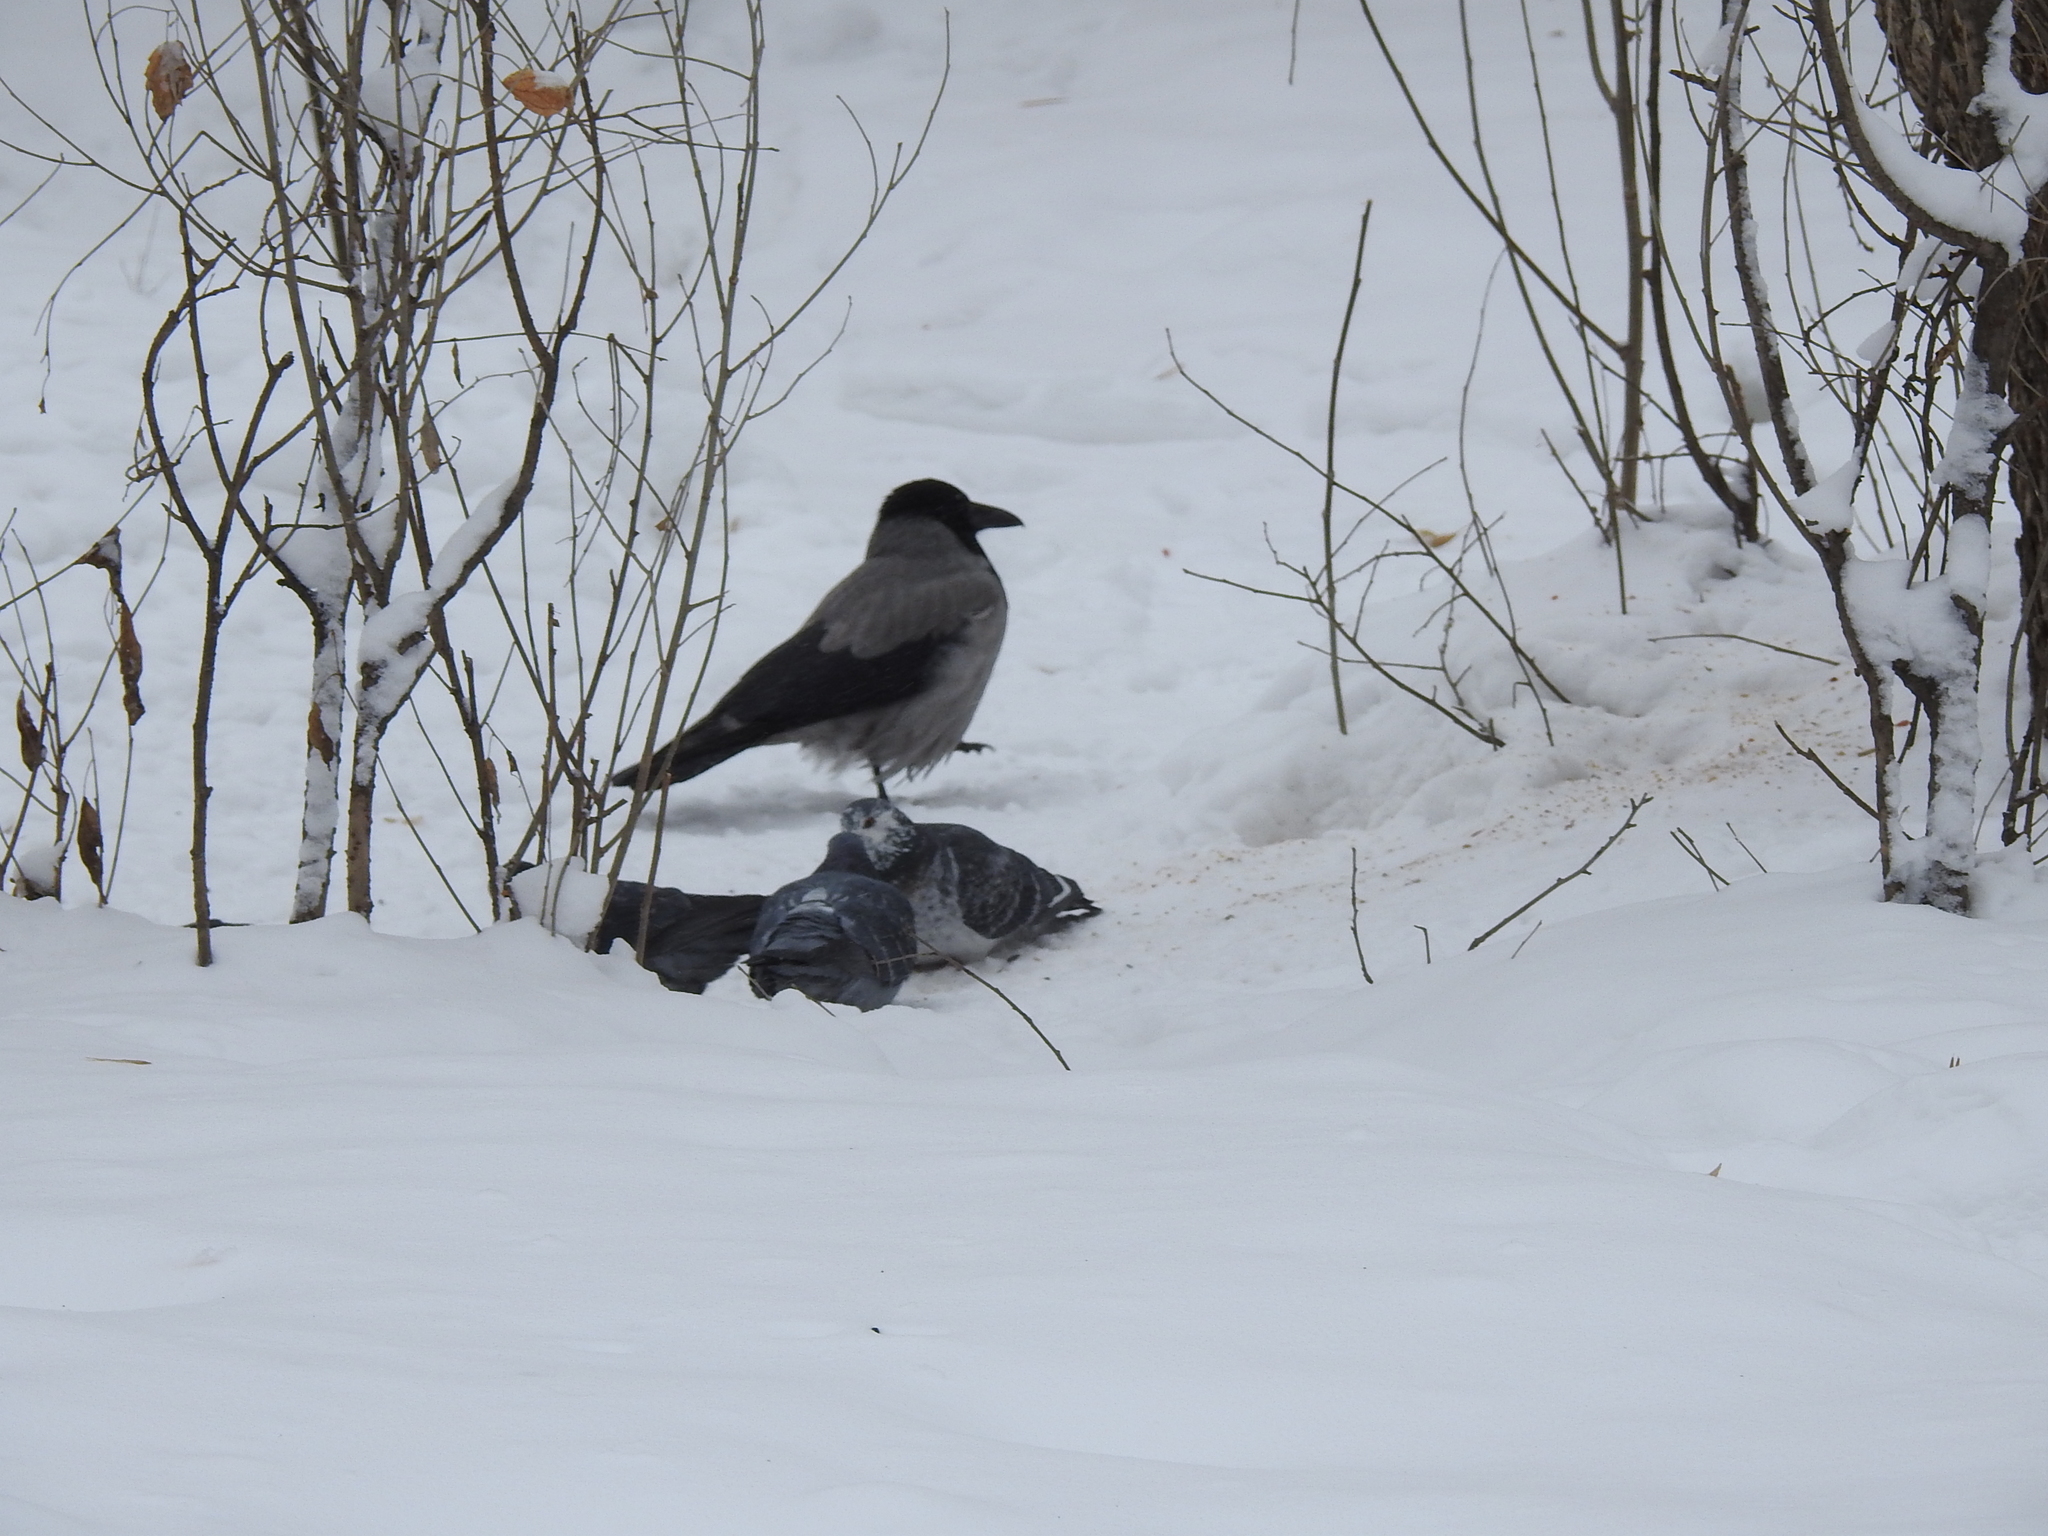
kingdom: Animalia
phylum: Chordata
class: Aves
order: Passeriformes
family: Corvidae
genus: Corvus
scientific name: Corvus cornix
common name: Hooded crow
